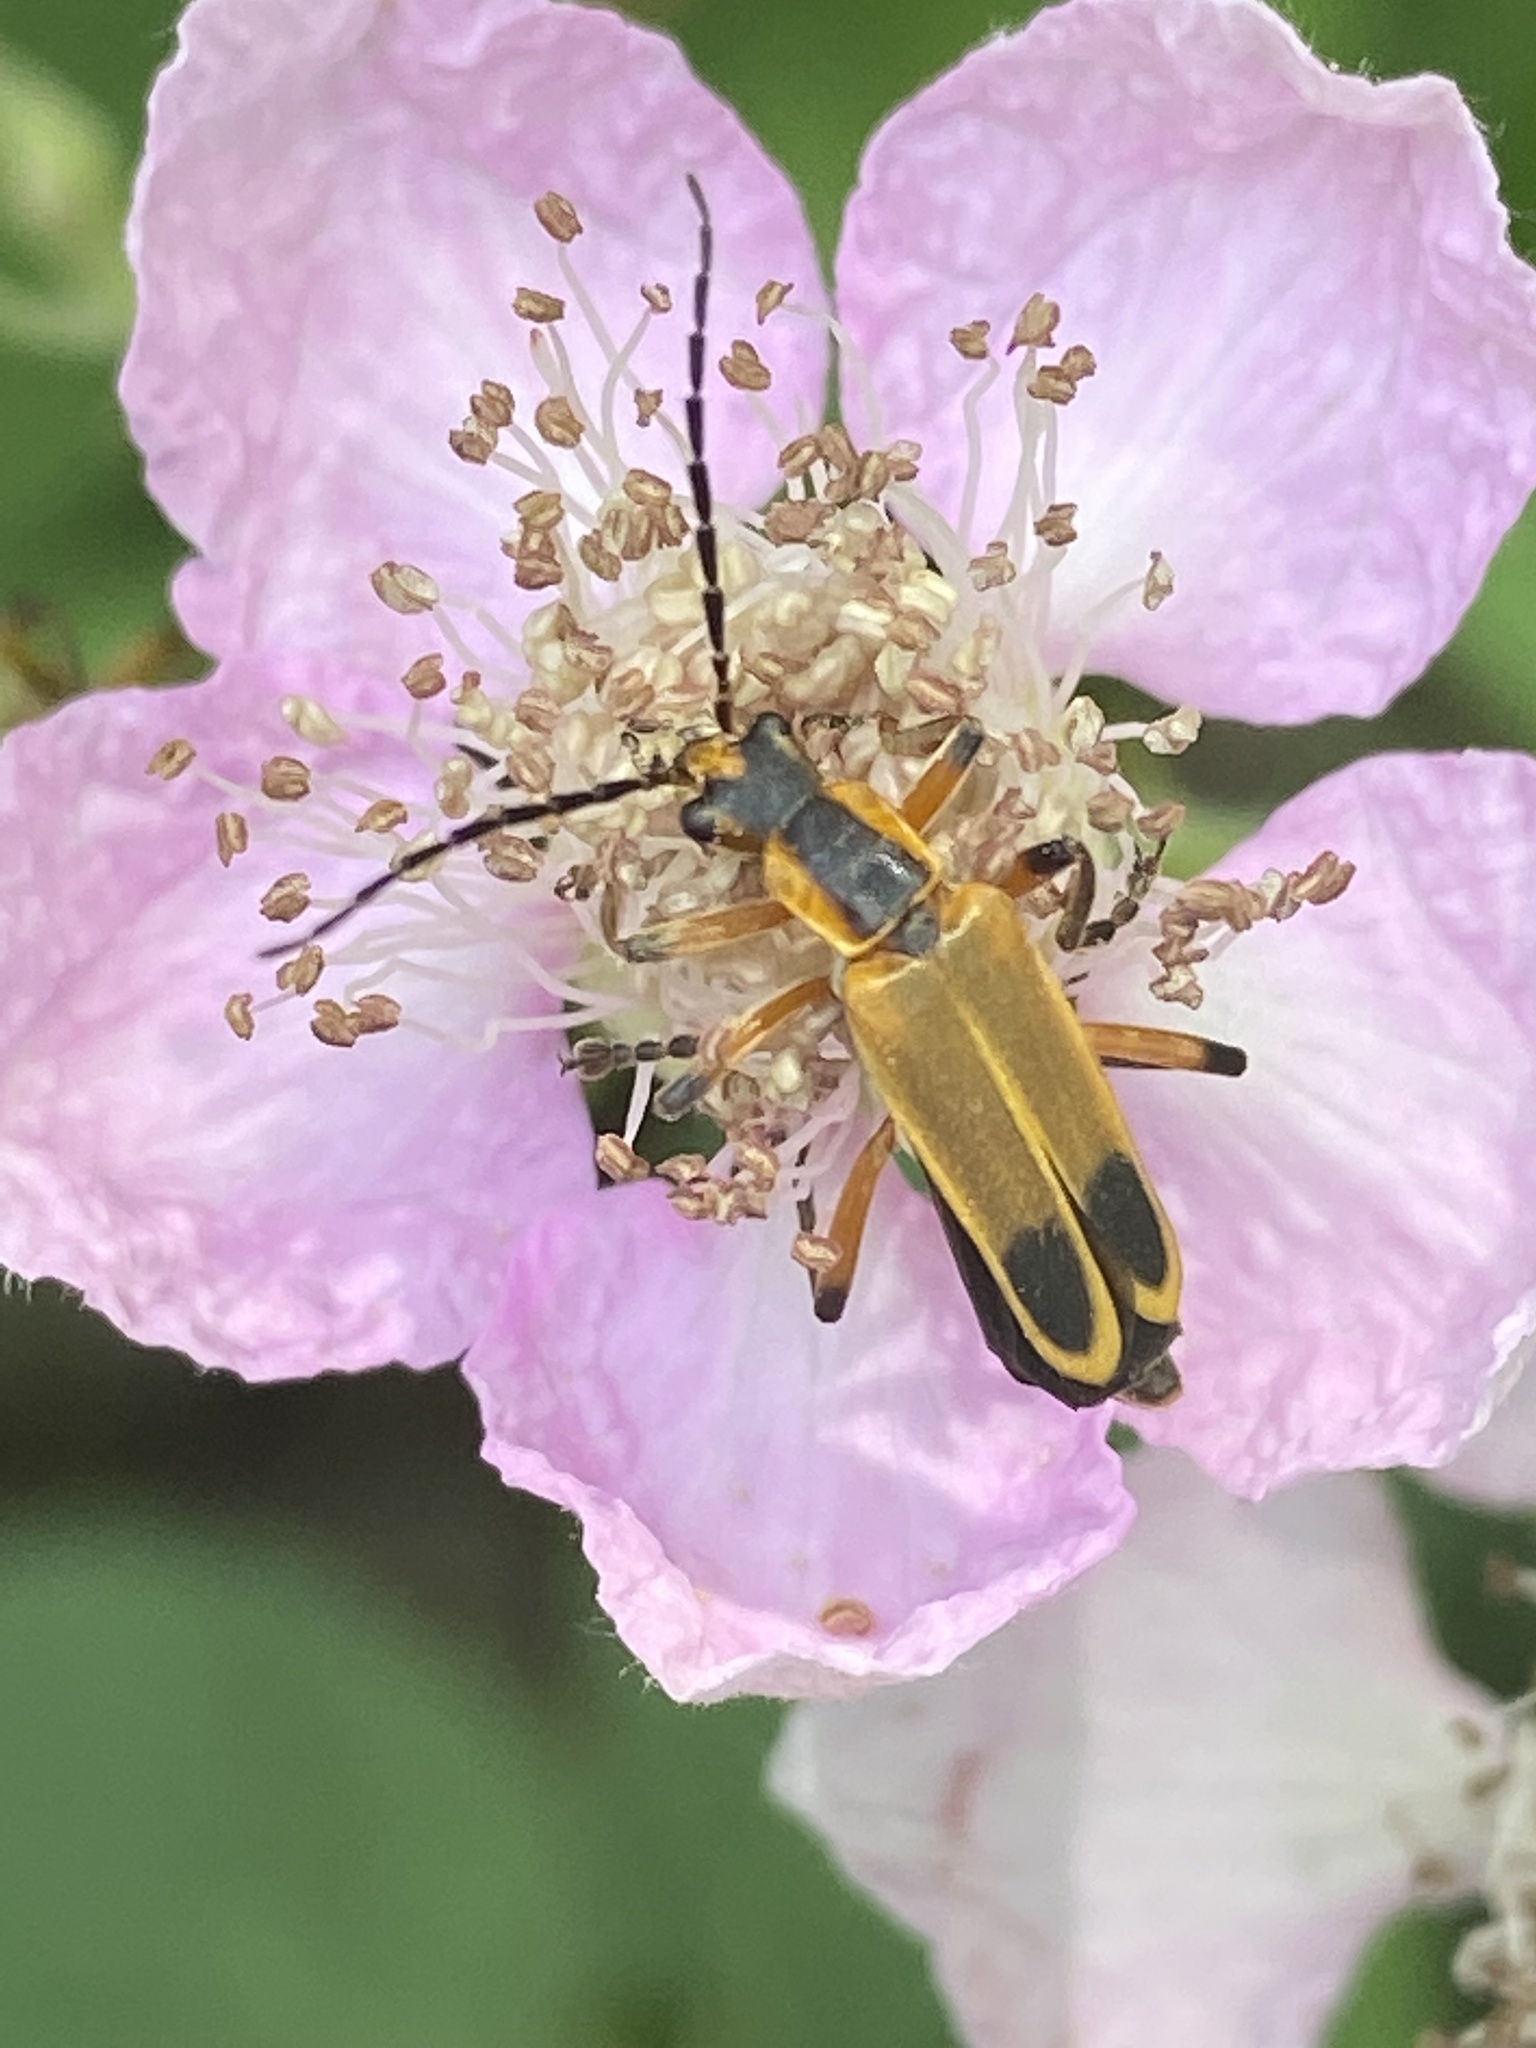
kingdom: Animalia
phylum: Arthropoda
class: Insecta
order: Coleoptera
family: Cantharidae
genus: Chauliognathus
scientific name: Chauliognathus marginatus
